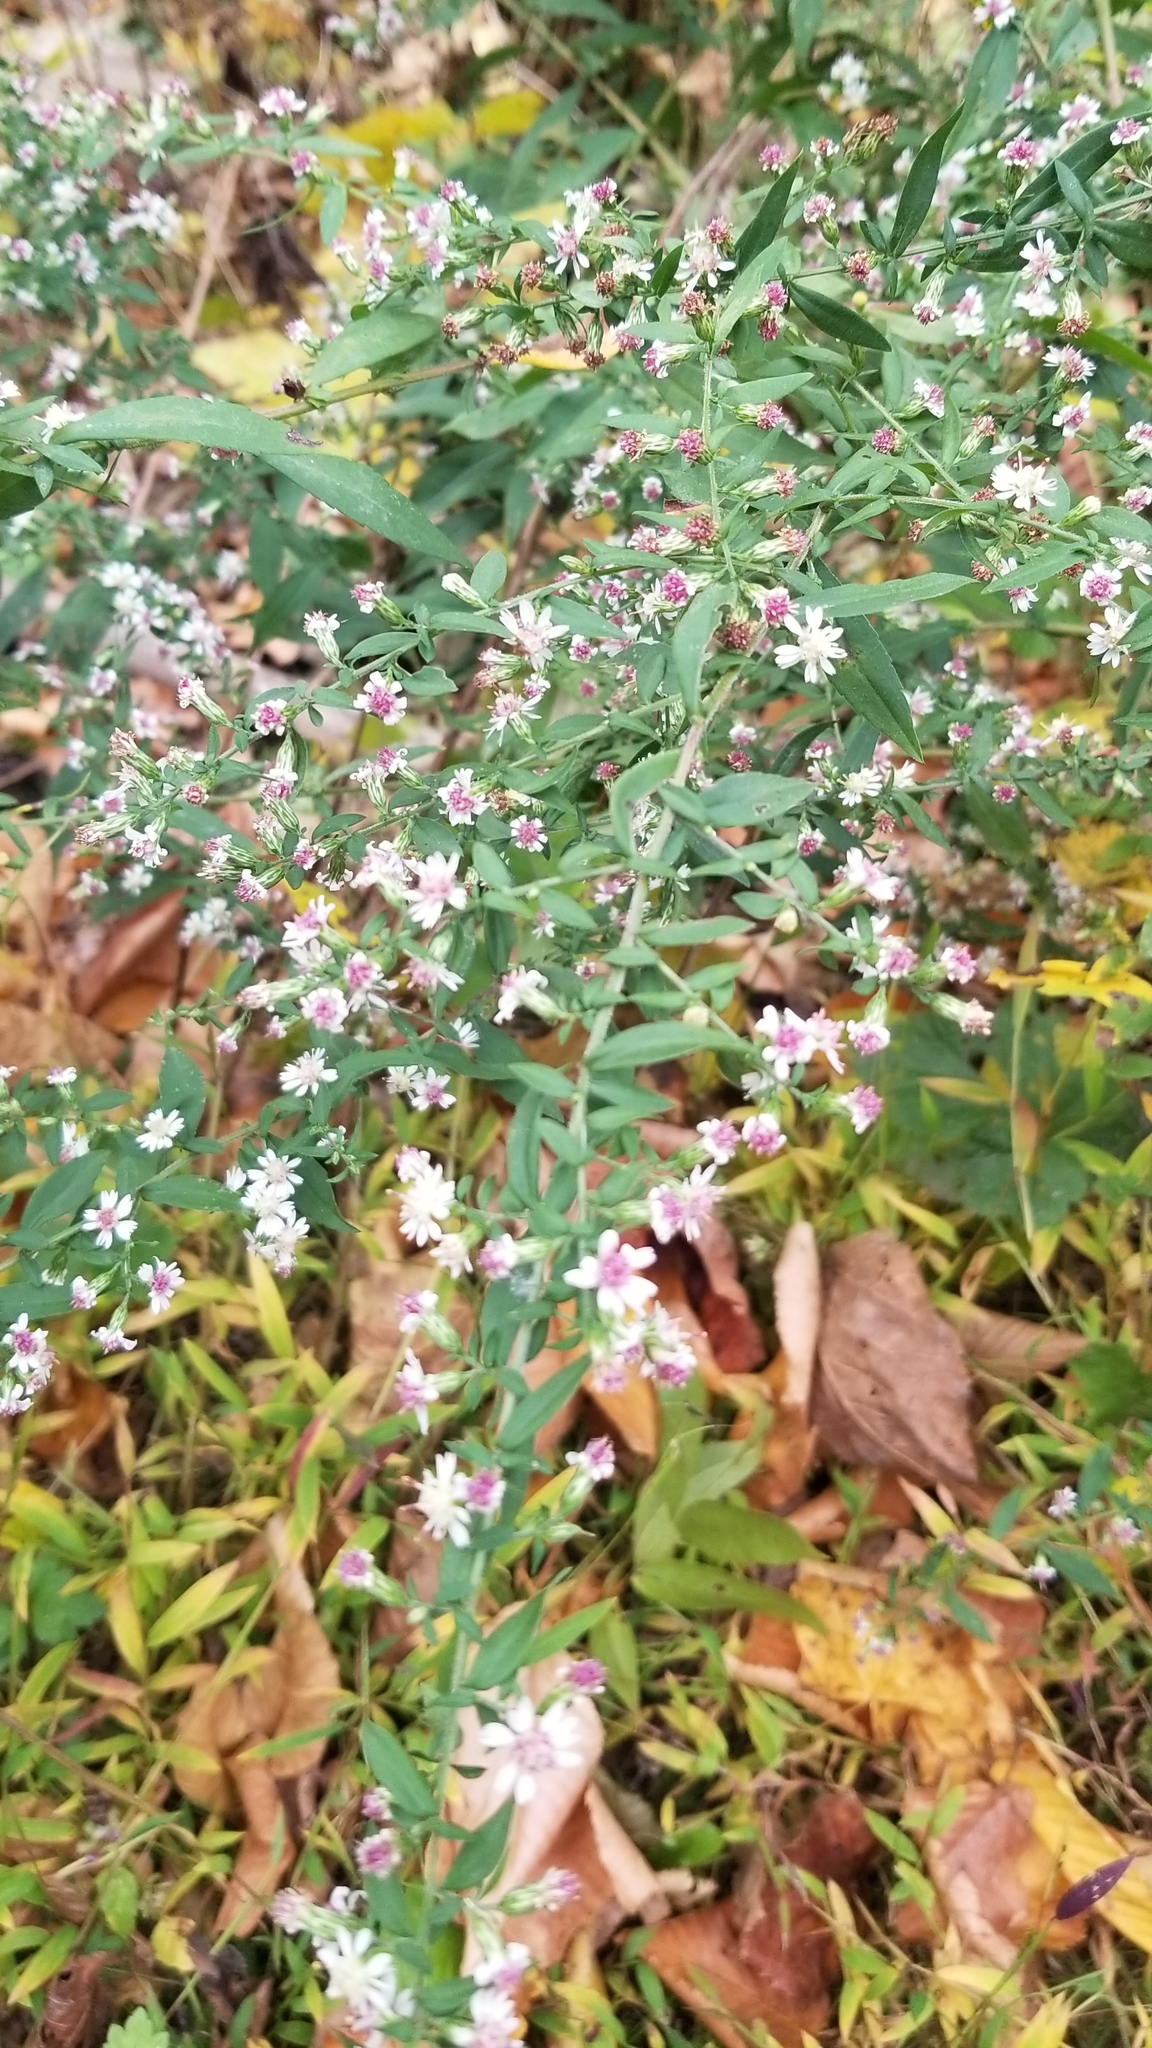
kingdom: Plantae
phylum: Tracheophyta
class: Magnoliopsida
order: Asterales
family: Asteraceae
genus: Symphyotrichum
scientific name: Symphyotrichum lateriflorum
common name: Calico aster
